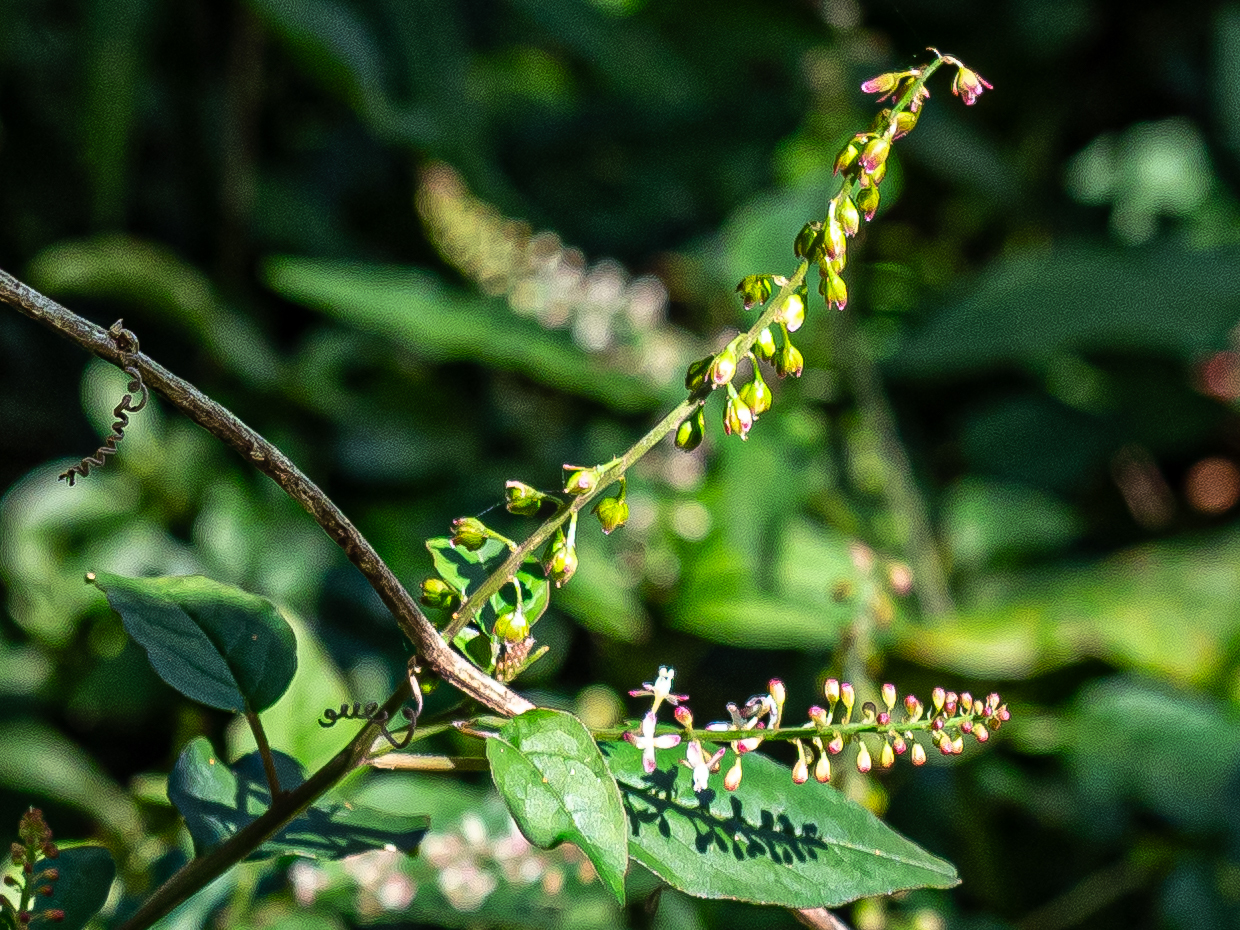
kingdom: Plantae
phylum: Tracheophyta
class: Magnoliopsida
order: Caryophyllales
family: Phytolaccaceae
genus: Rivina
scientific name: Rivina humilis
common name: Rougeplant
